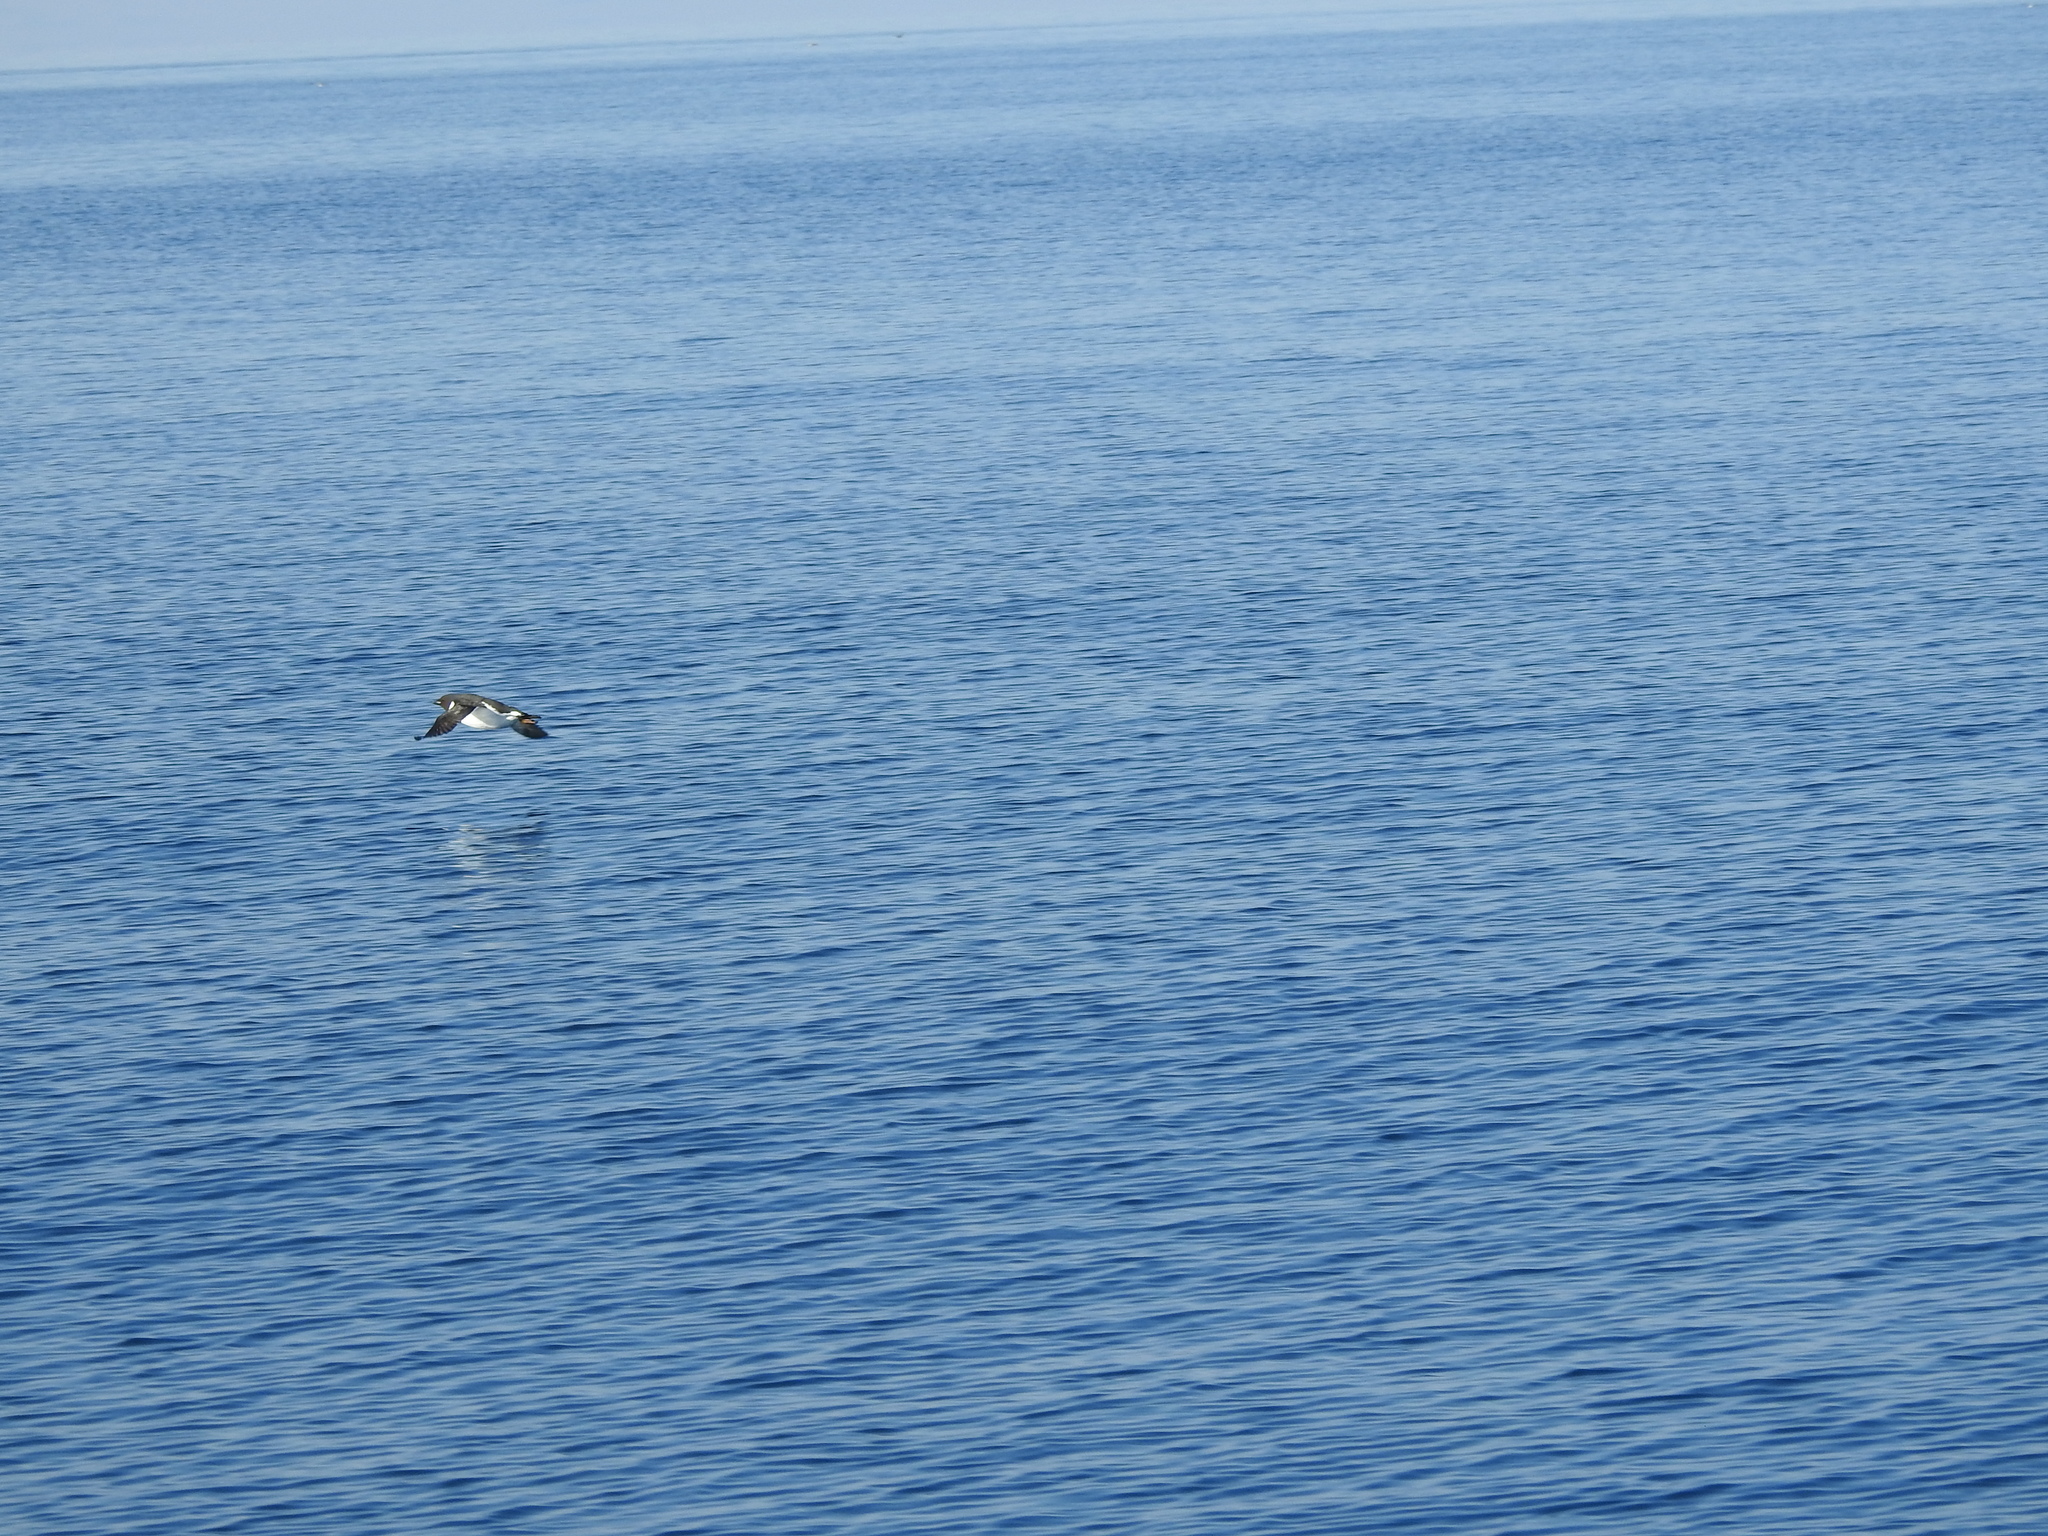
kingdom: Animalia
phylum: Chordata
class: Aves
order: Charadriiformes
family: Alcidae
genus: Uria
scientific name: Uria lomvia
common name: Thick-billed murre
